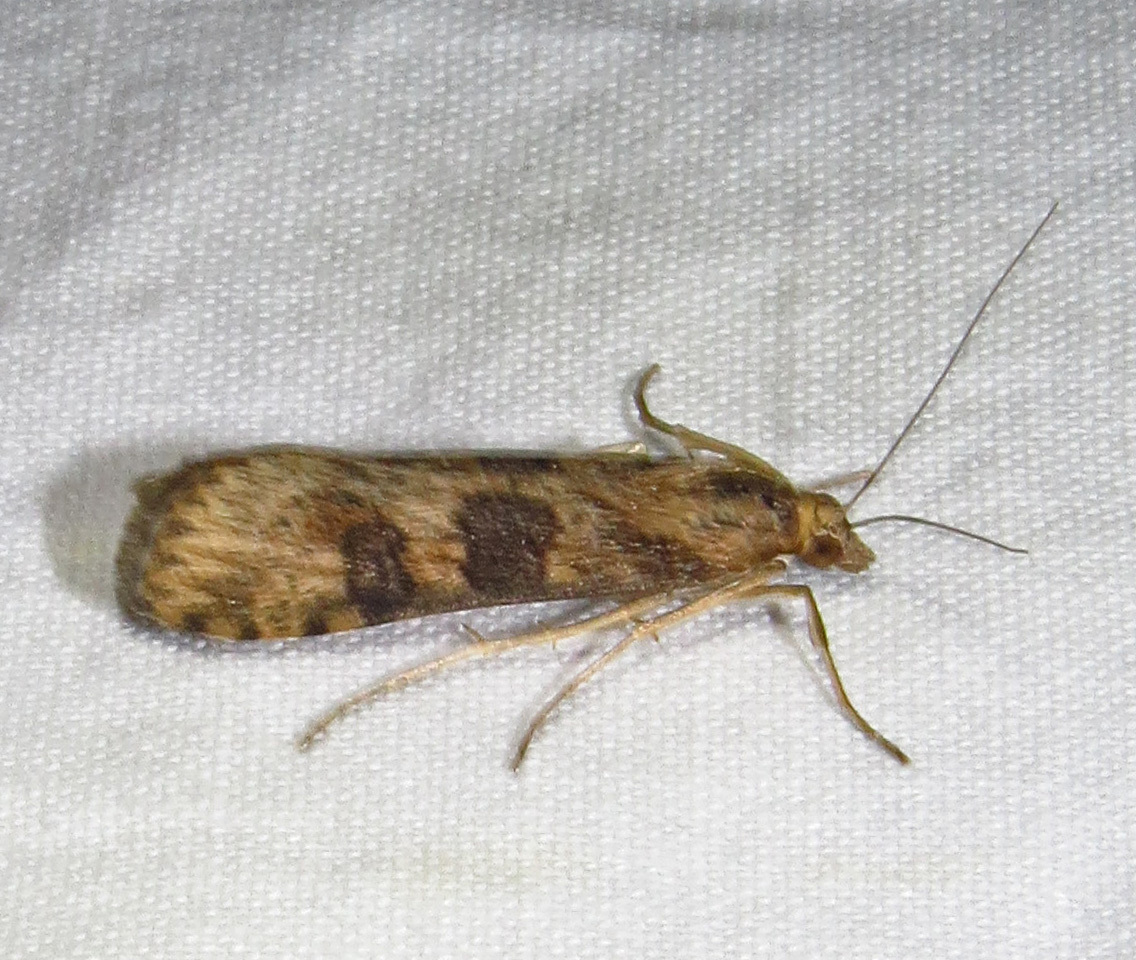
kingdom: Animalia
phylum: Arthropoda
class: Insecta
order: Lepidoptera
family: Crambidae
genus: Nomophila
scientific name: Nomophila nearctica
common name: American rush veneer
